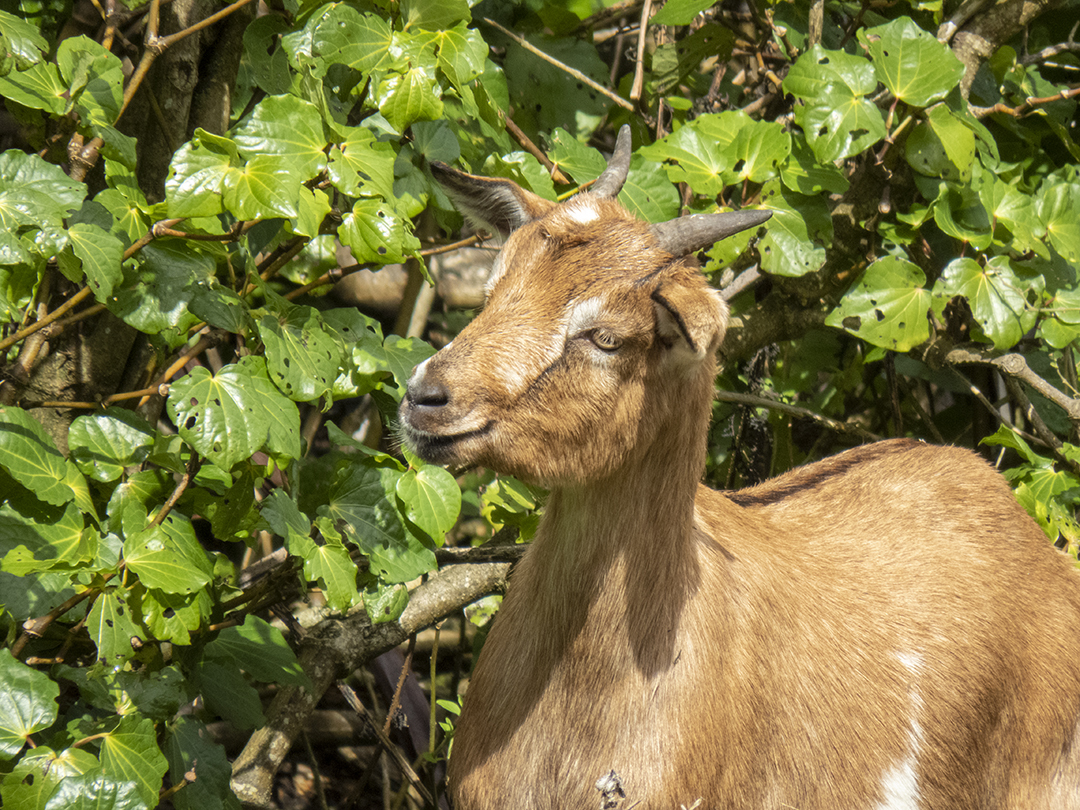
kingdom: Animalia
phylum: Chordata
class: Mammalia
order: Artiodactyla
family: Bovidae
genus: Capra
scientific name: Capra hircus
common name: Domestic goat
